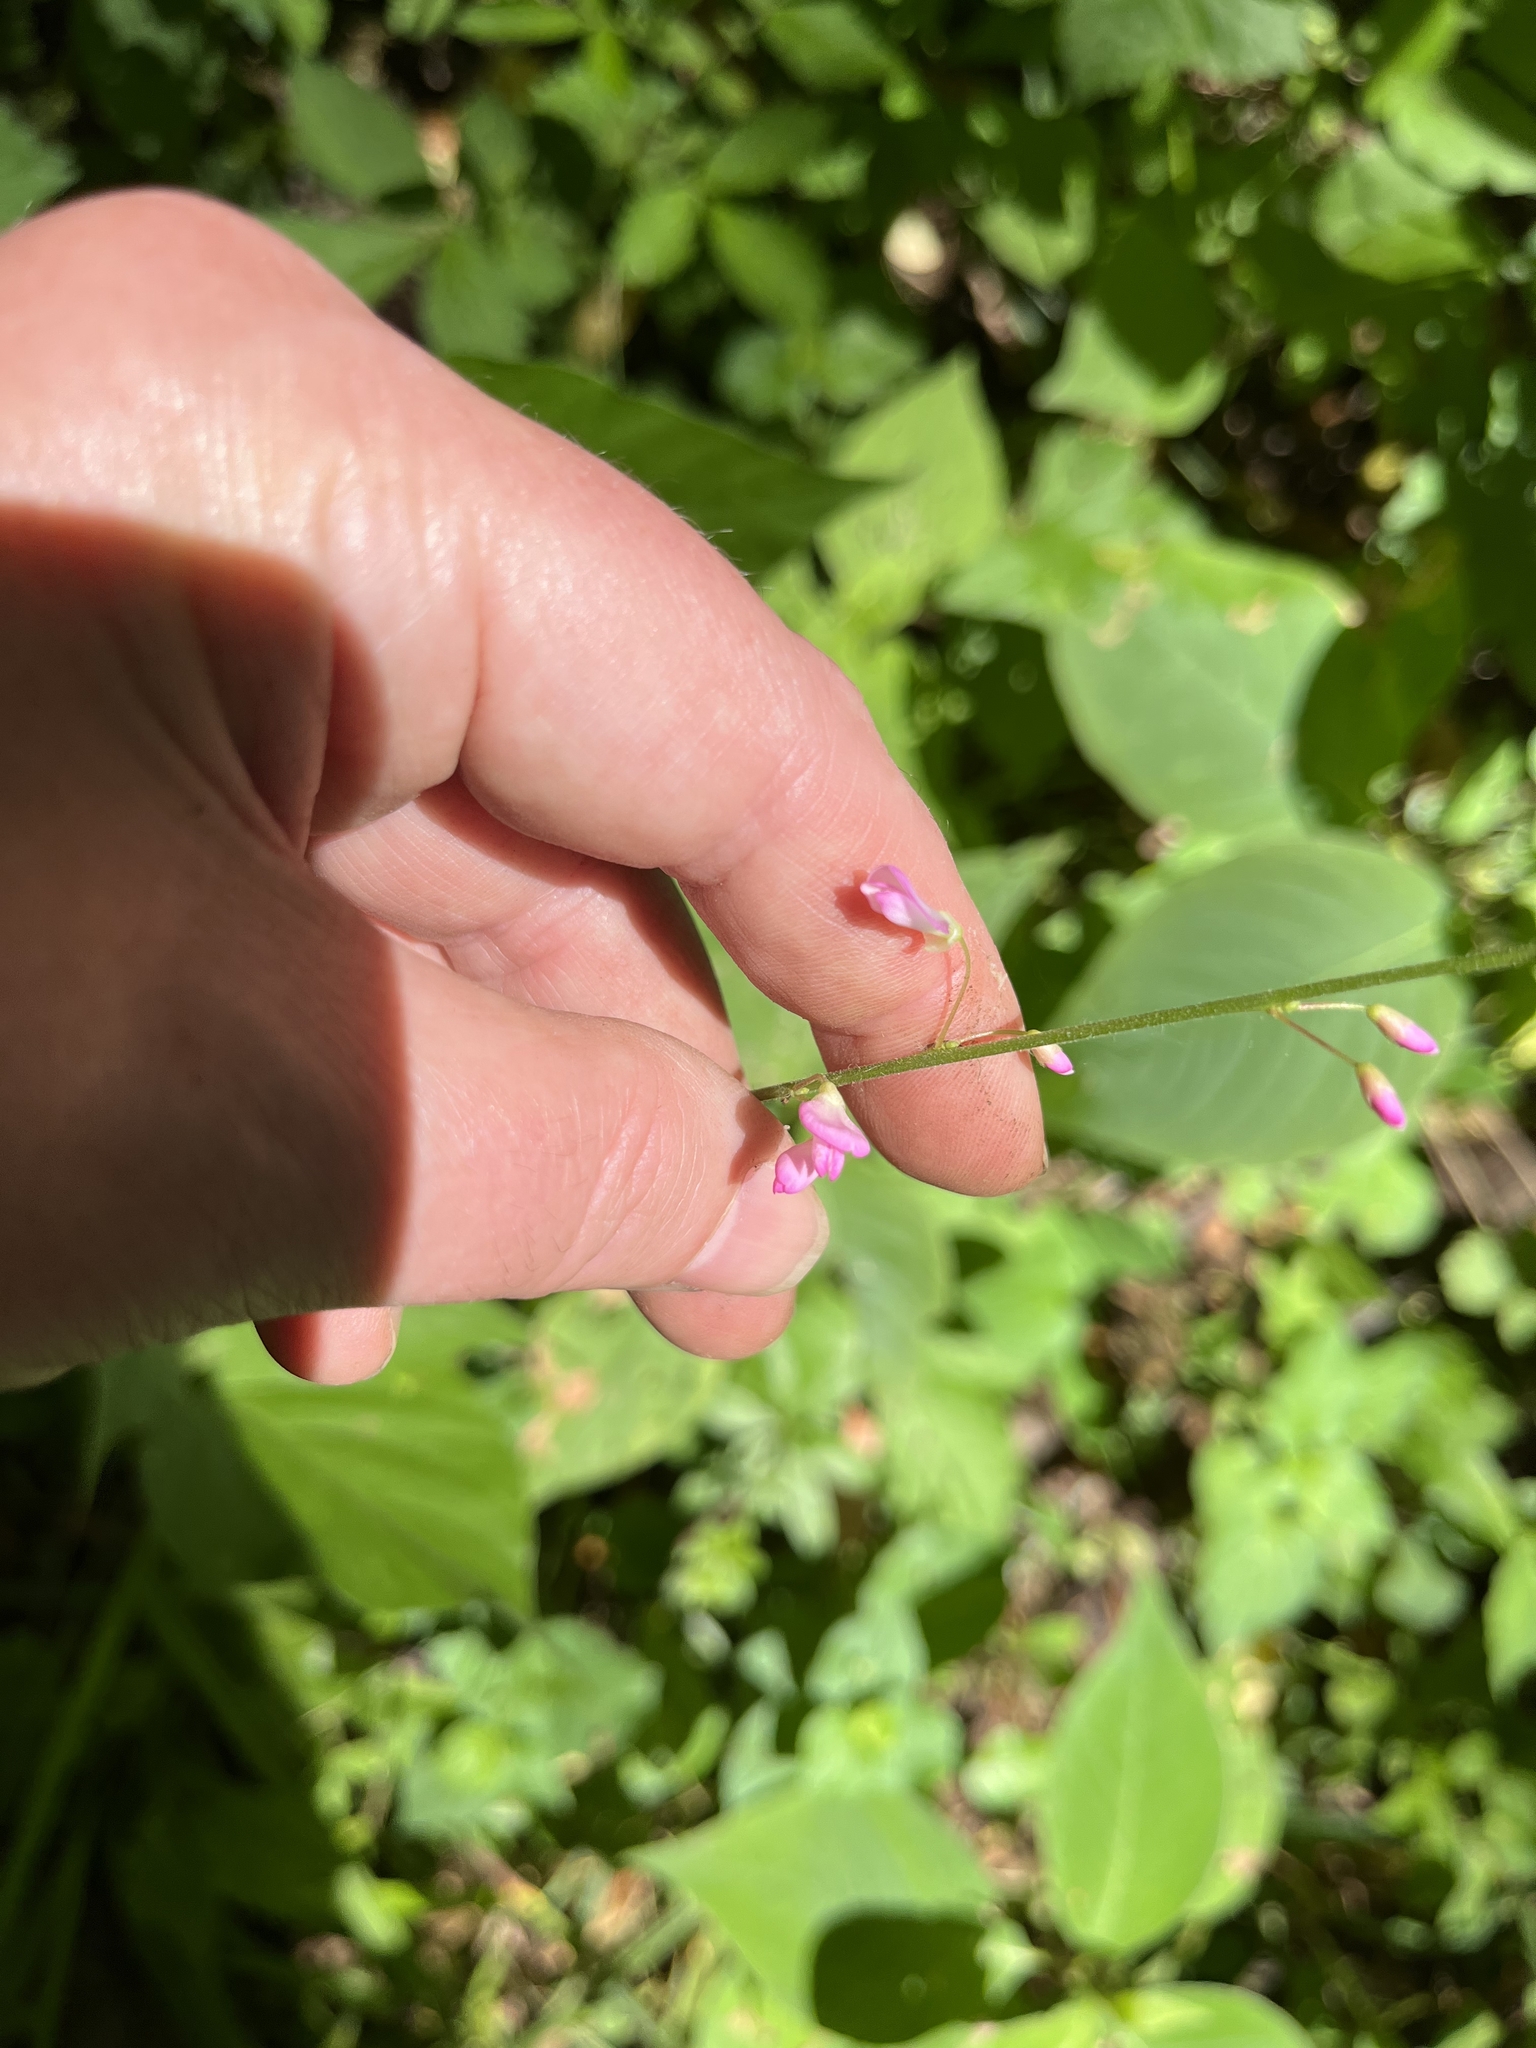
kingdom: Plantae
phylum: Tracheophyta
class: Magnoliopsida
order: Fabales
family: Fabaceae
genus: Hylodesmum
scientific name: Hylodesmum glutinosum
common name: Clustered-leaved tick-trefoil
